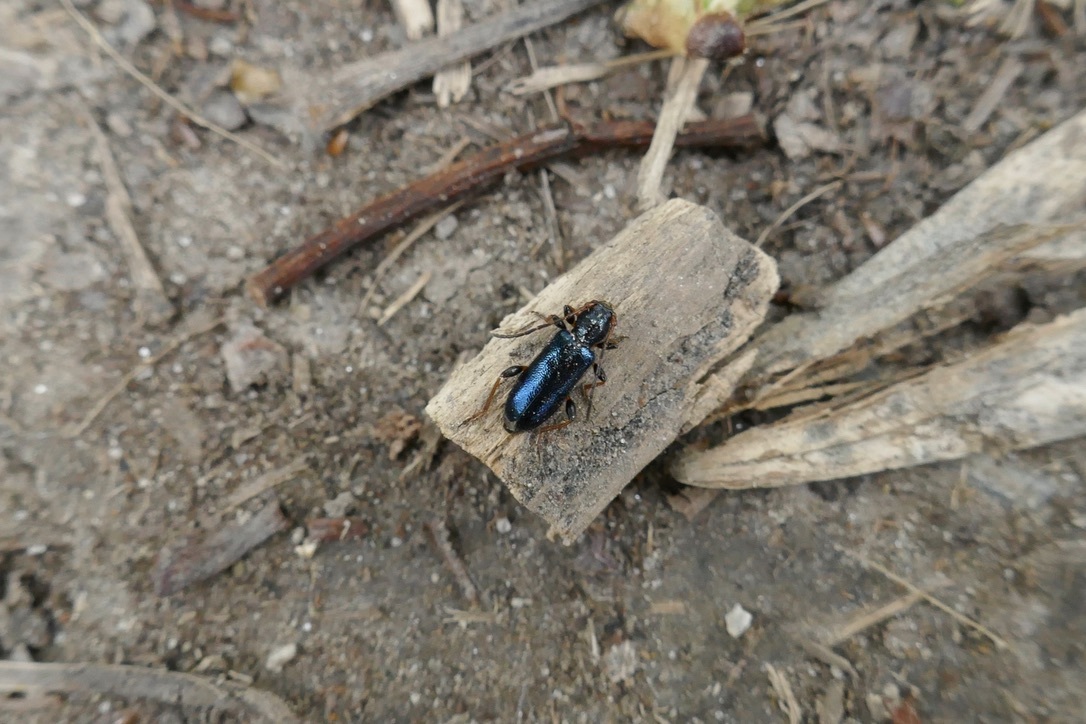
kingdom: Animalia
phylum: Arthropoda
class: Insecta
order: Coleoptera
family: Cerambycidae
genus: Phymatodes
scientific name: Phymatodes rufipes
